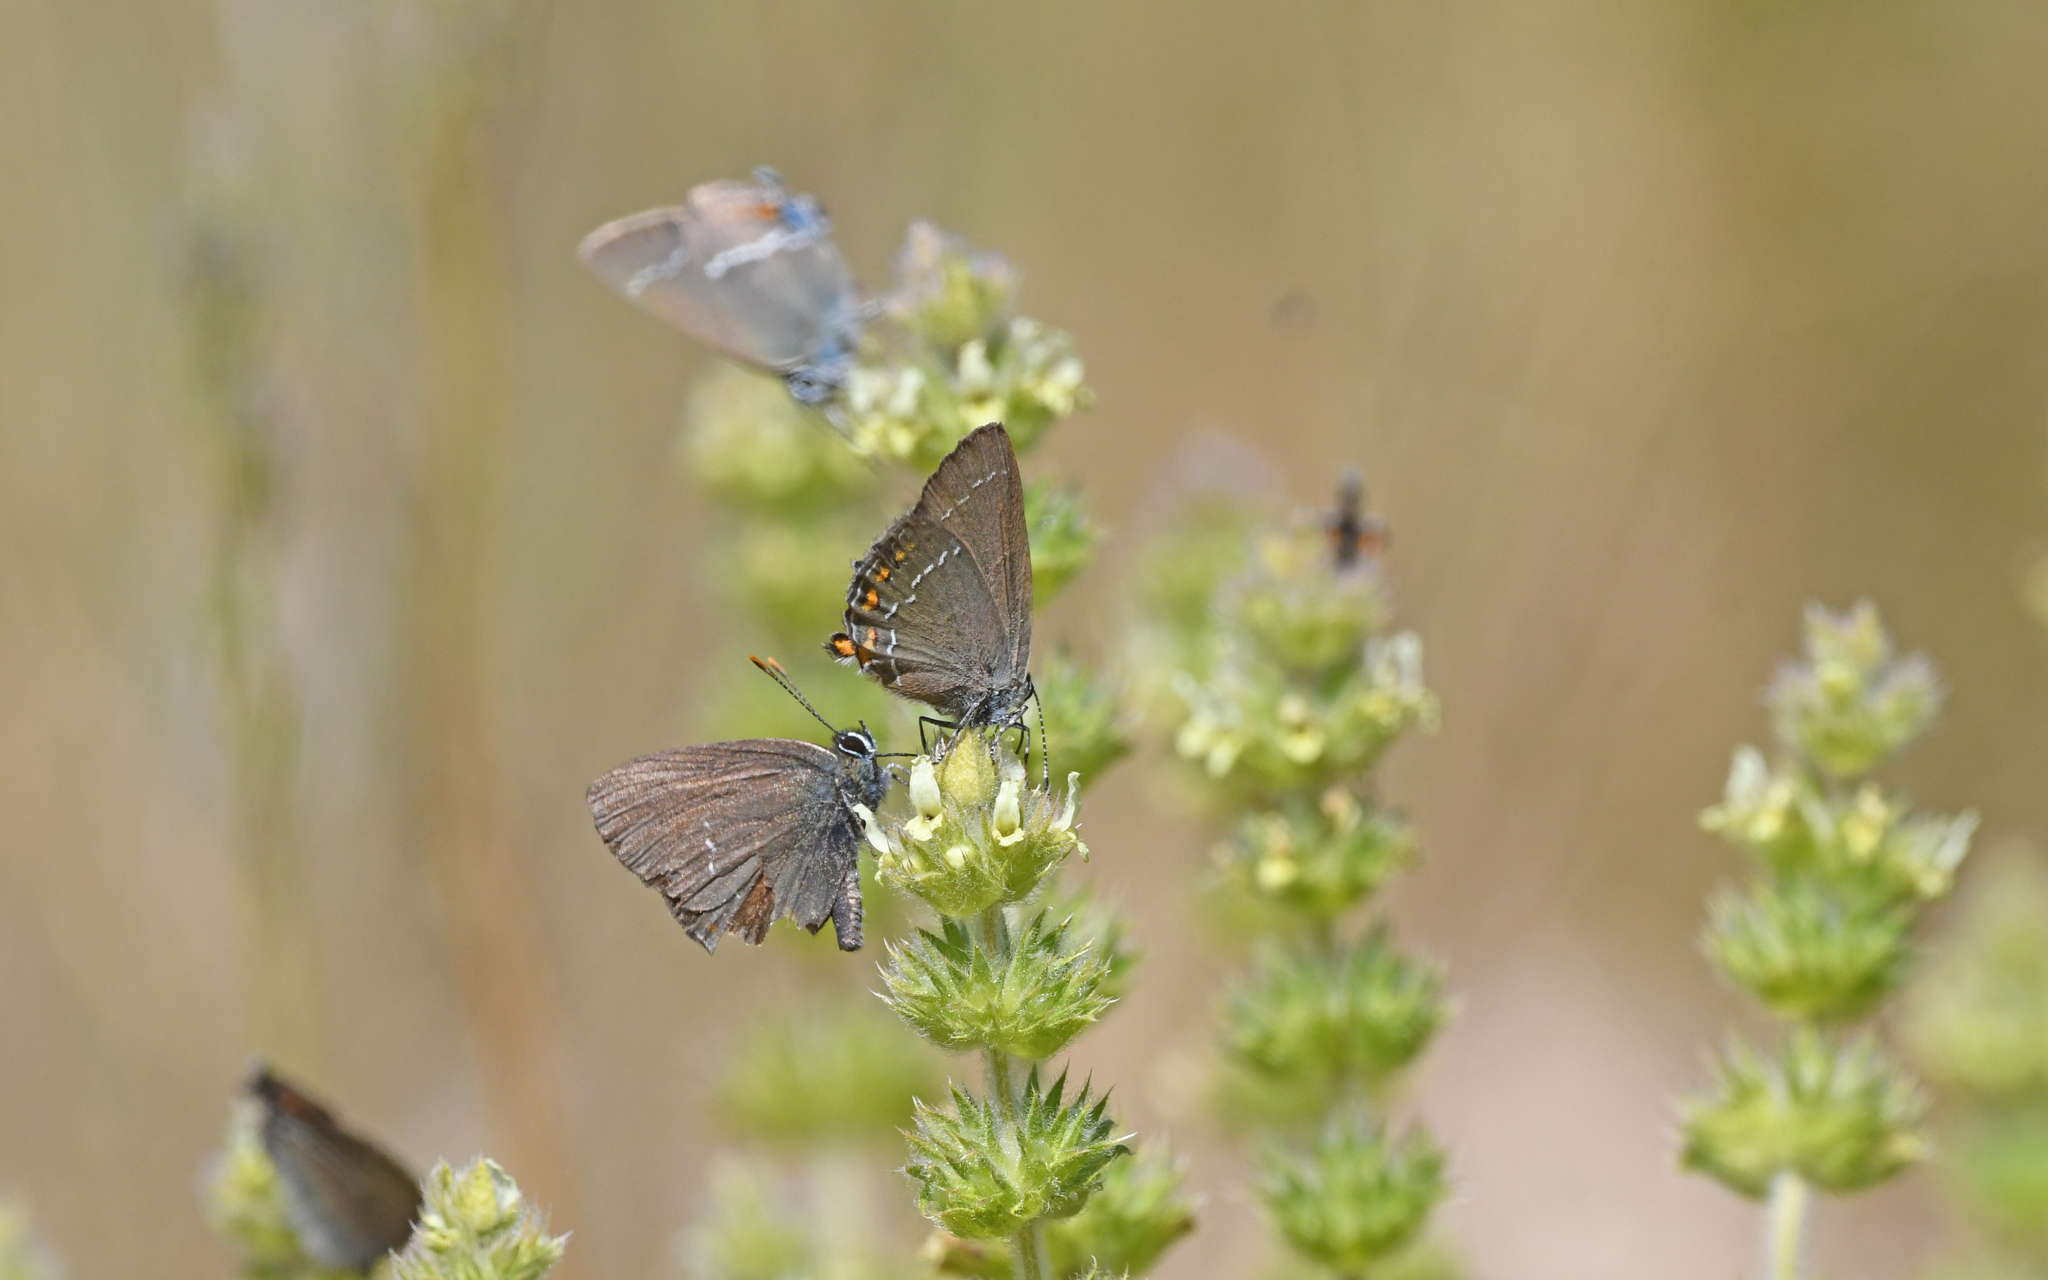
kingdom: Animalia
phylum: Arthropoda
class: Insecta
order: Lepidoptera
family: Lycaenidae
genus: Nordmannia
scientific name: Nordmannia ilicis
